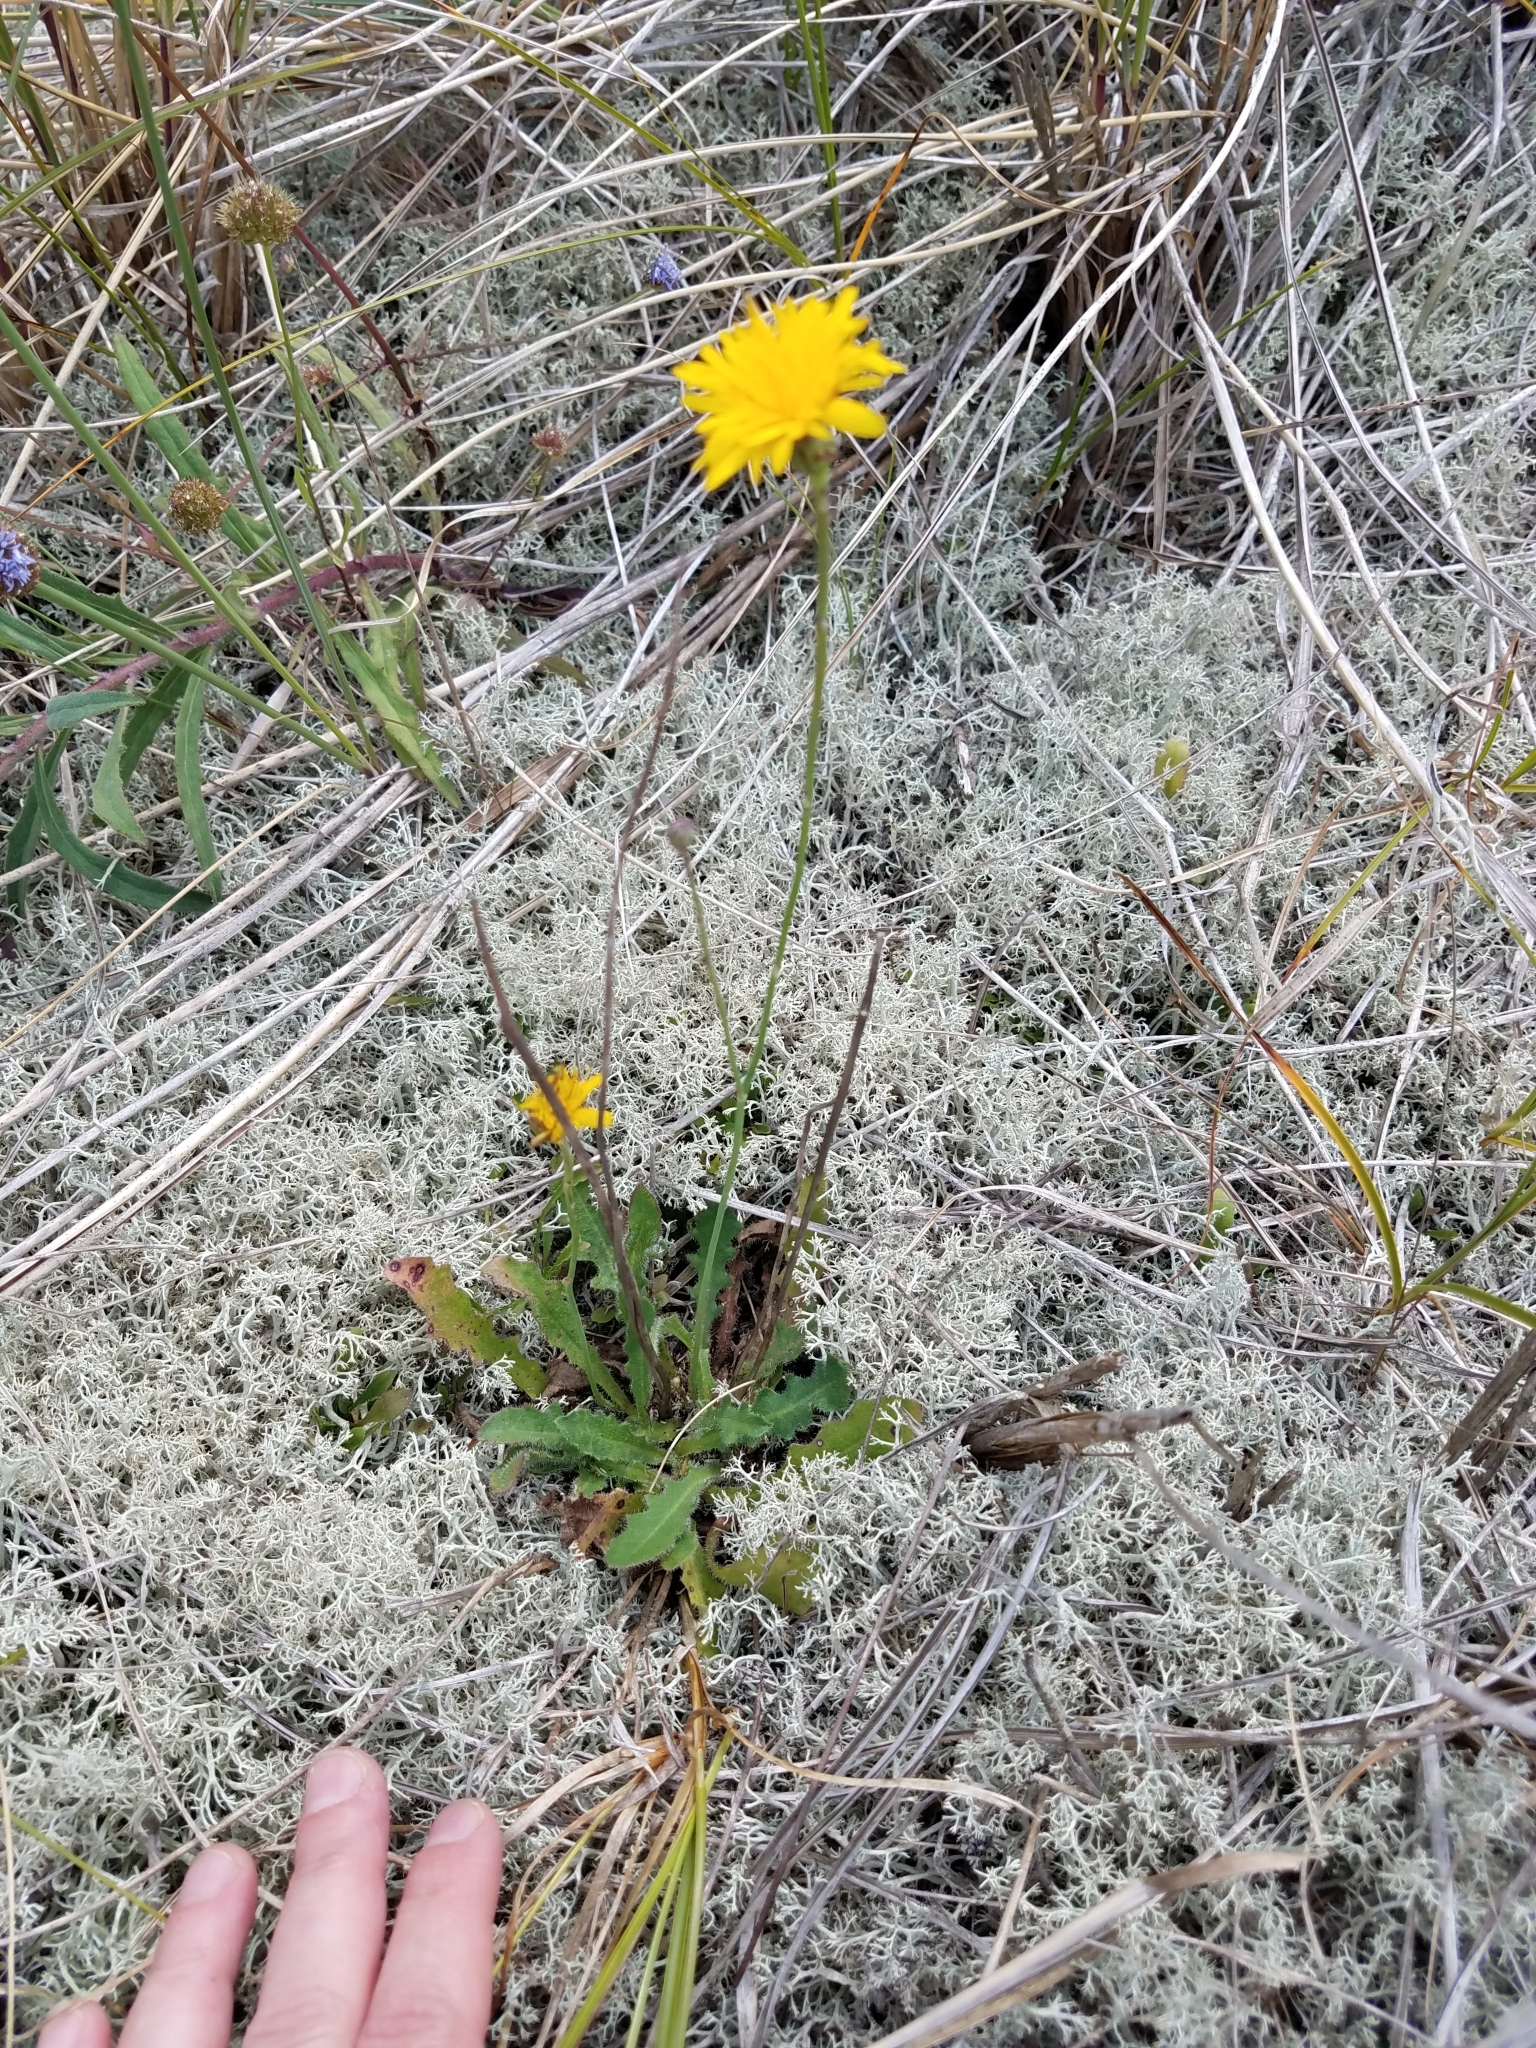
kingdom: Plantae
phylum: Tracheophyta
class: Magnoliopsida
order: Asterales
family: Asteraceae
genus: Hypochaeris
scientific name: Hypochaeris radicata
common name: Flatweed
